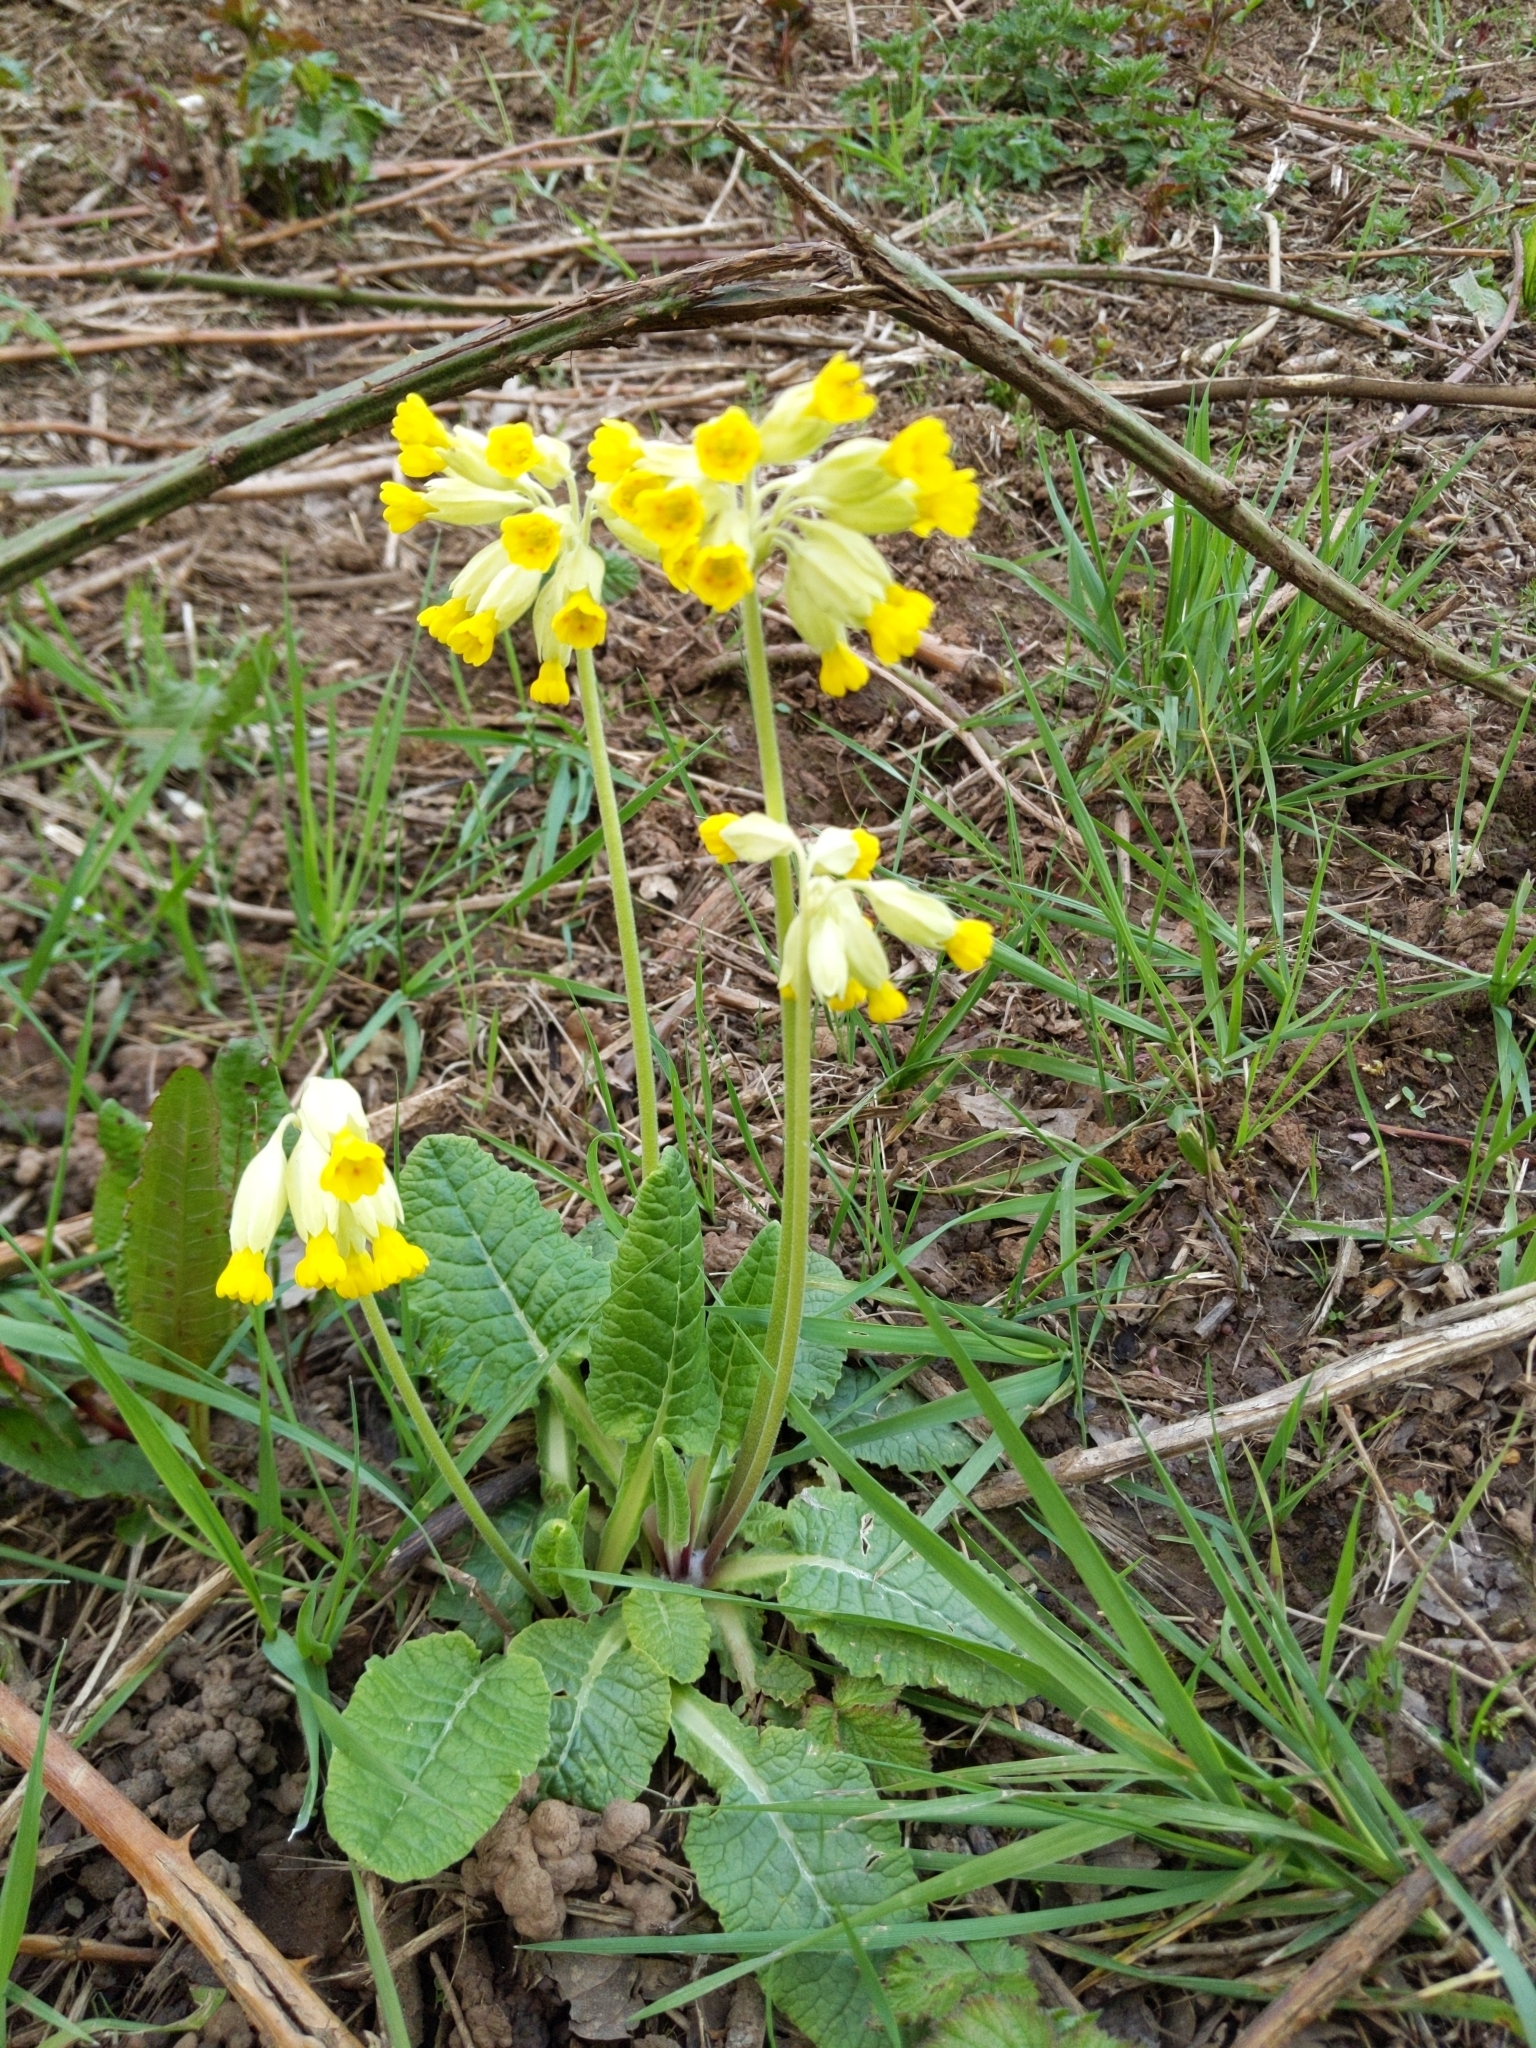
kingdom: Plantae
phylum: Tracheophyta
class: Magnoliopsida
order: Ericales
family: Primulaceae
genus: Primula
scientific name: Primula veris
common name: Cowslip
